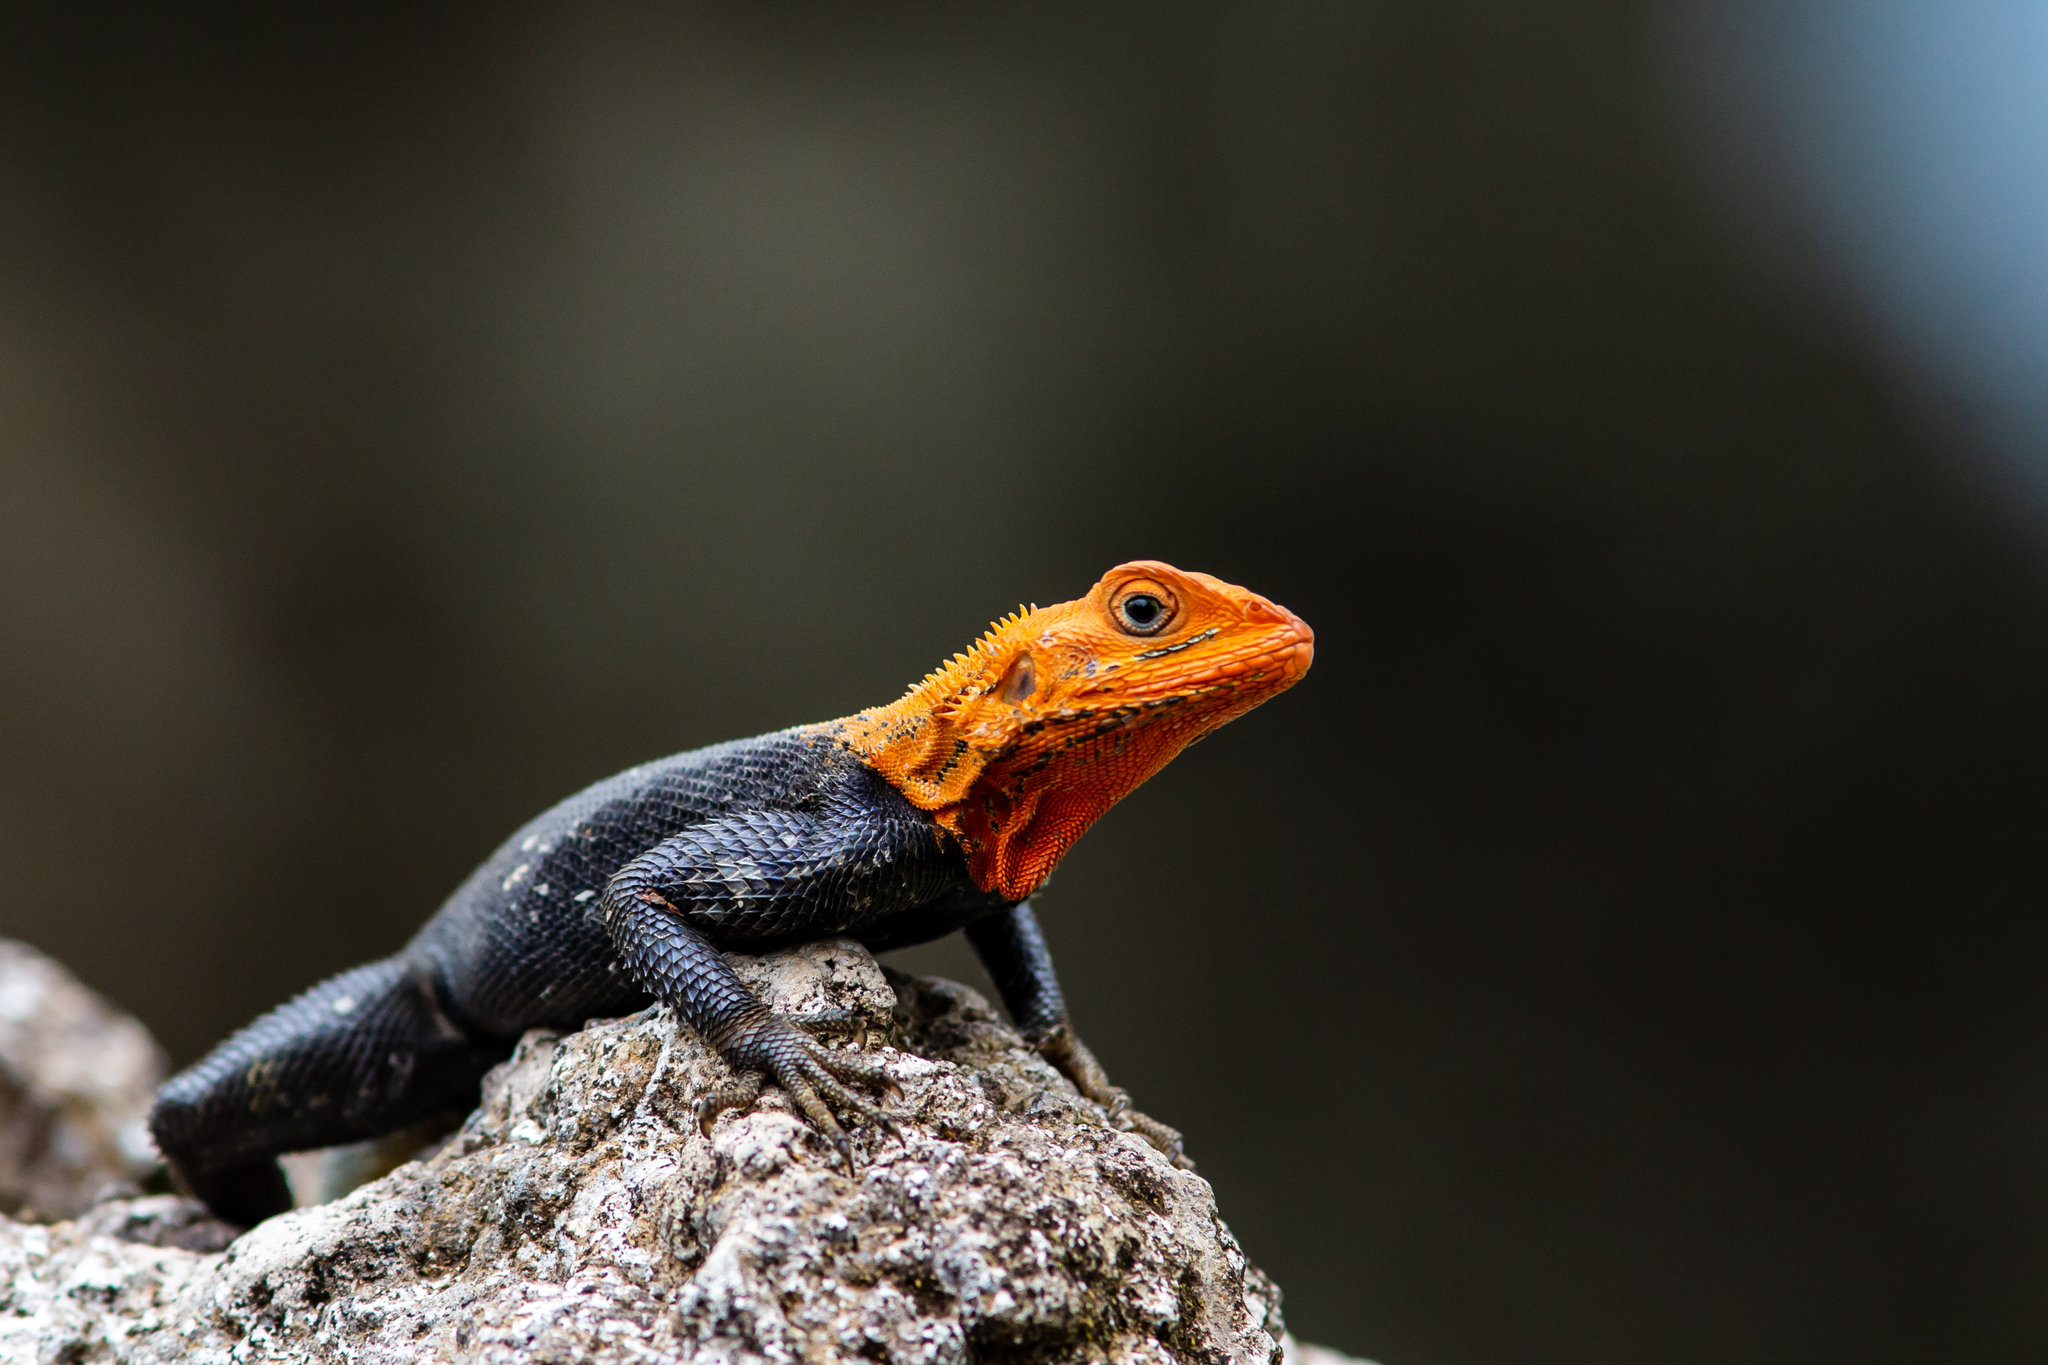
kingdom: Animalia
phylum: Chordata
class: Squamata
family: Agamidae
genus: Agama
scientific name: Agama agama
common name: Common agama
